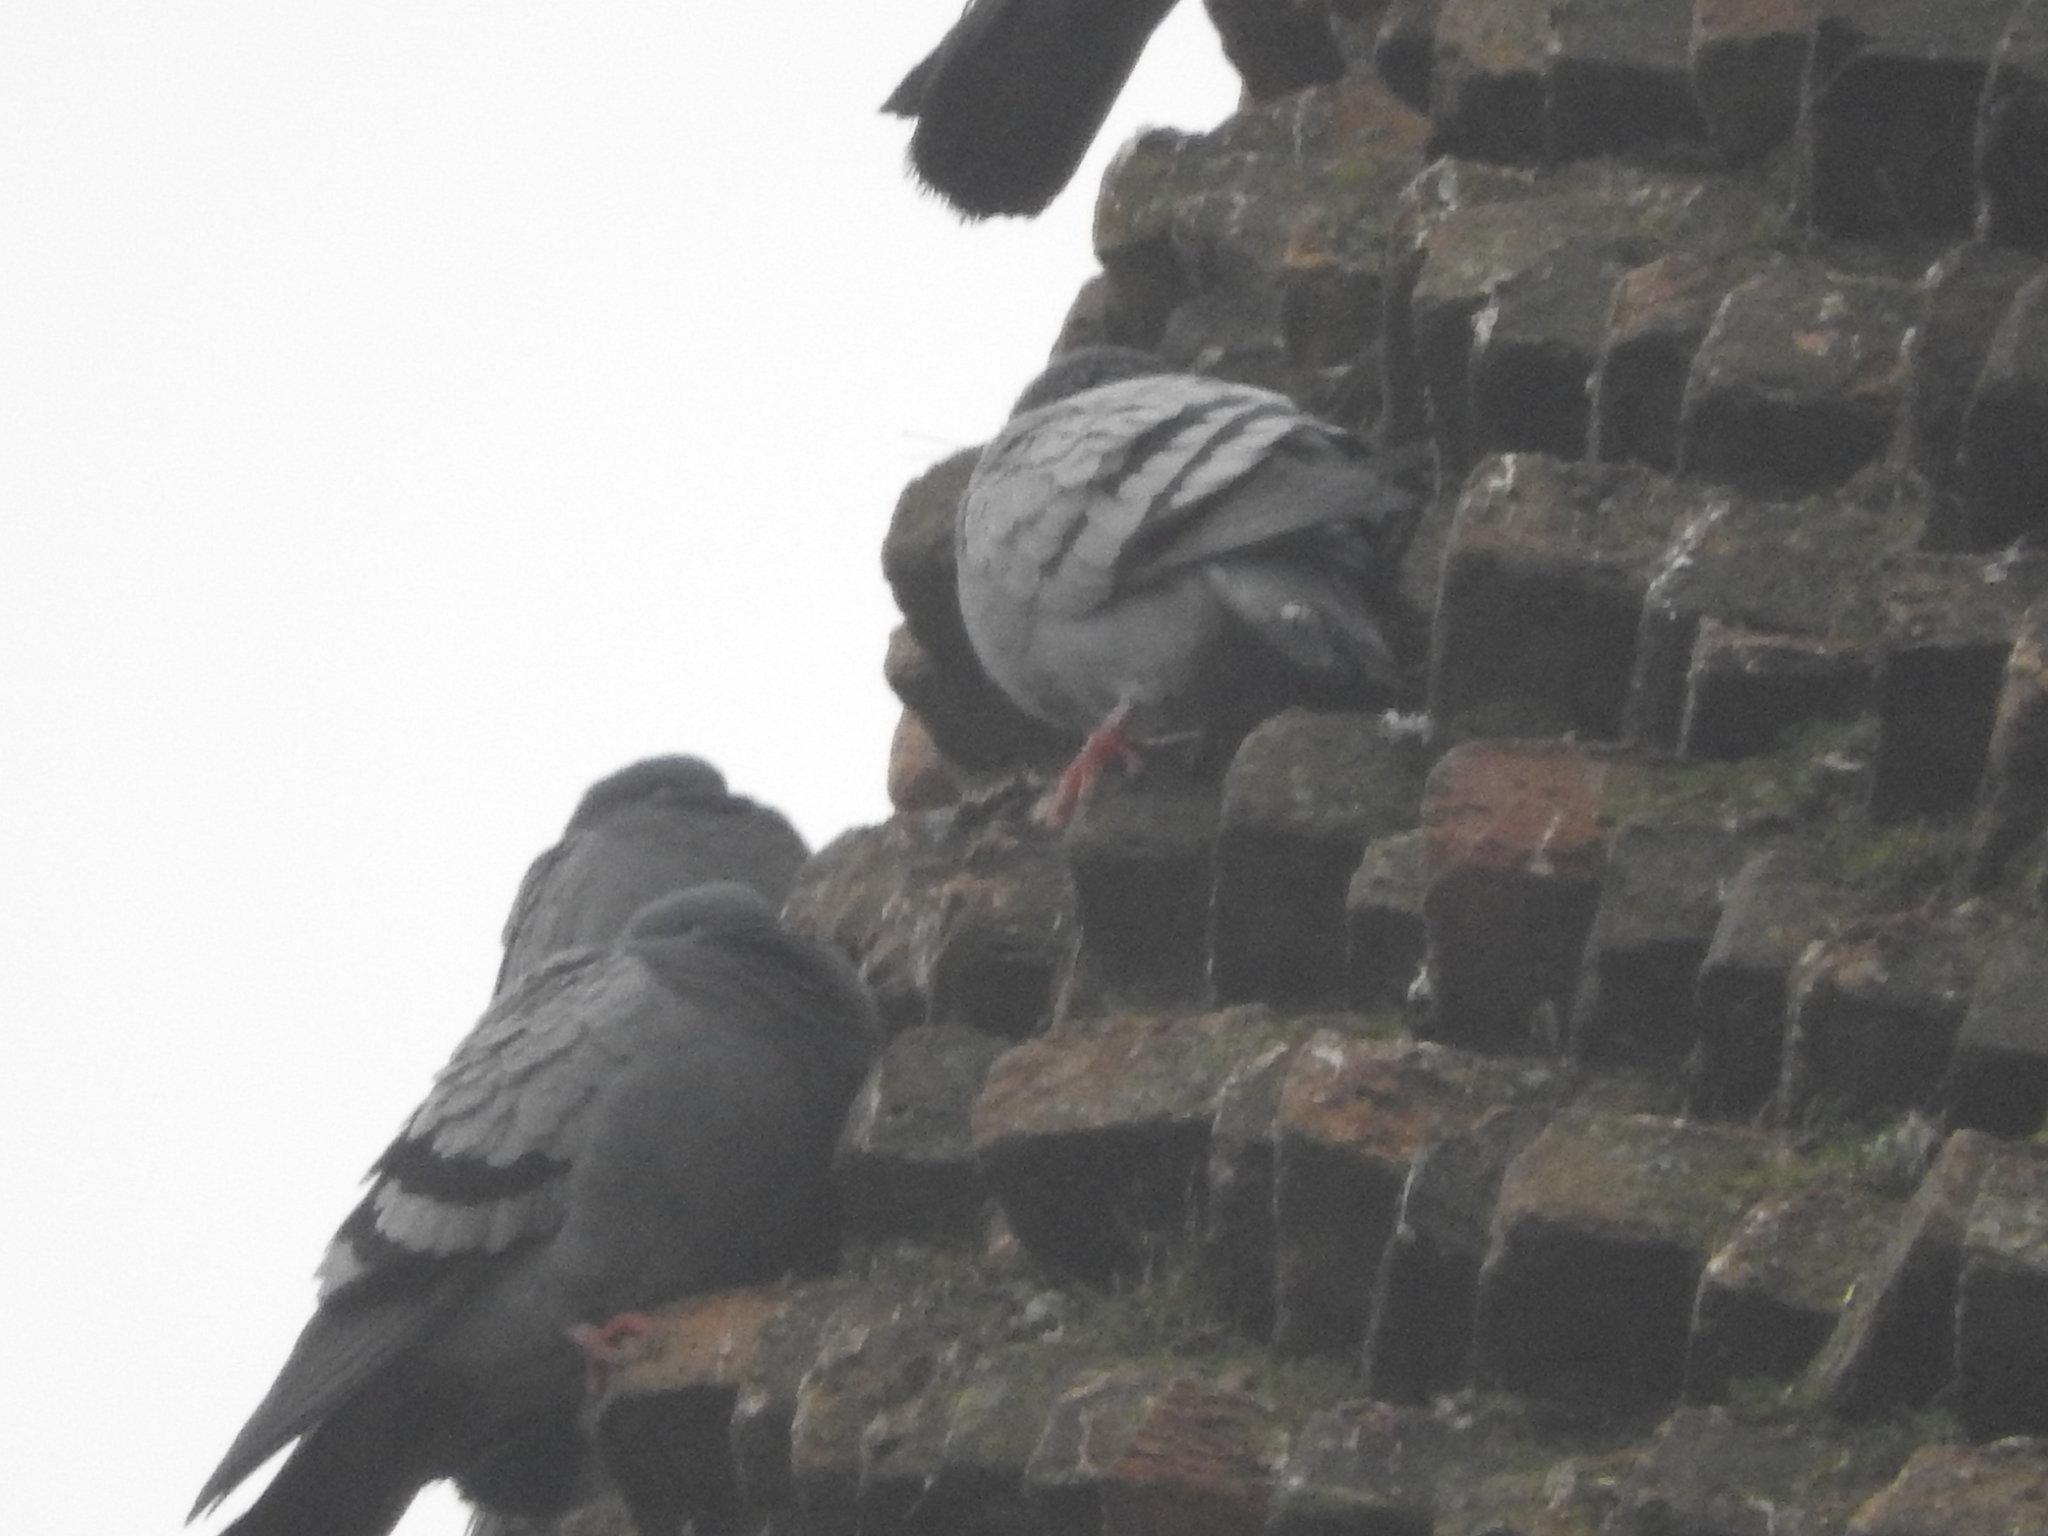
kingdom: Animalia
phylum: Chordata
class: Aves
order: Columbiformes
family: Columbidae
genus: Columba
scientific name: Columba livia
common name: Rock pigeon
